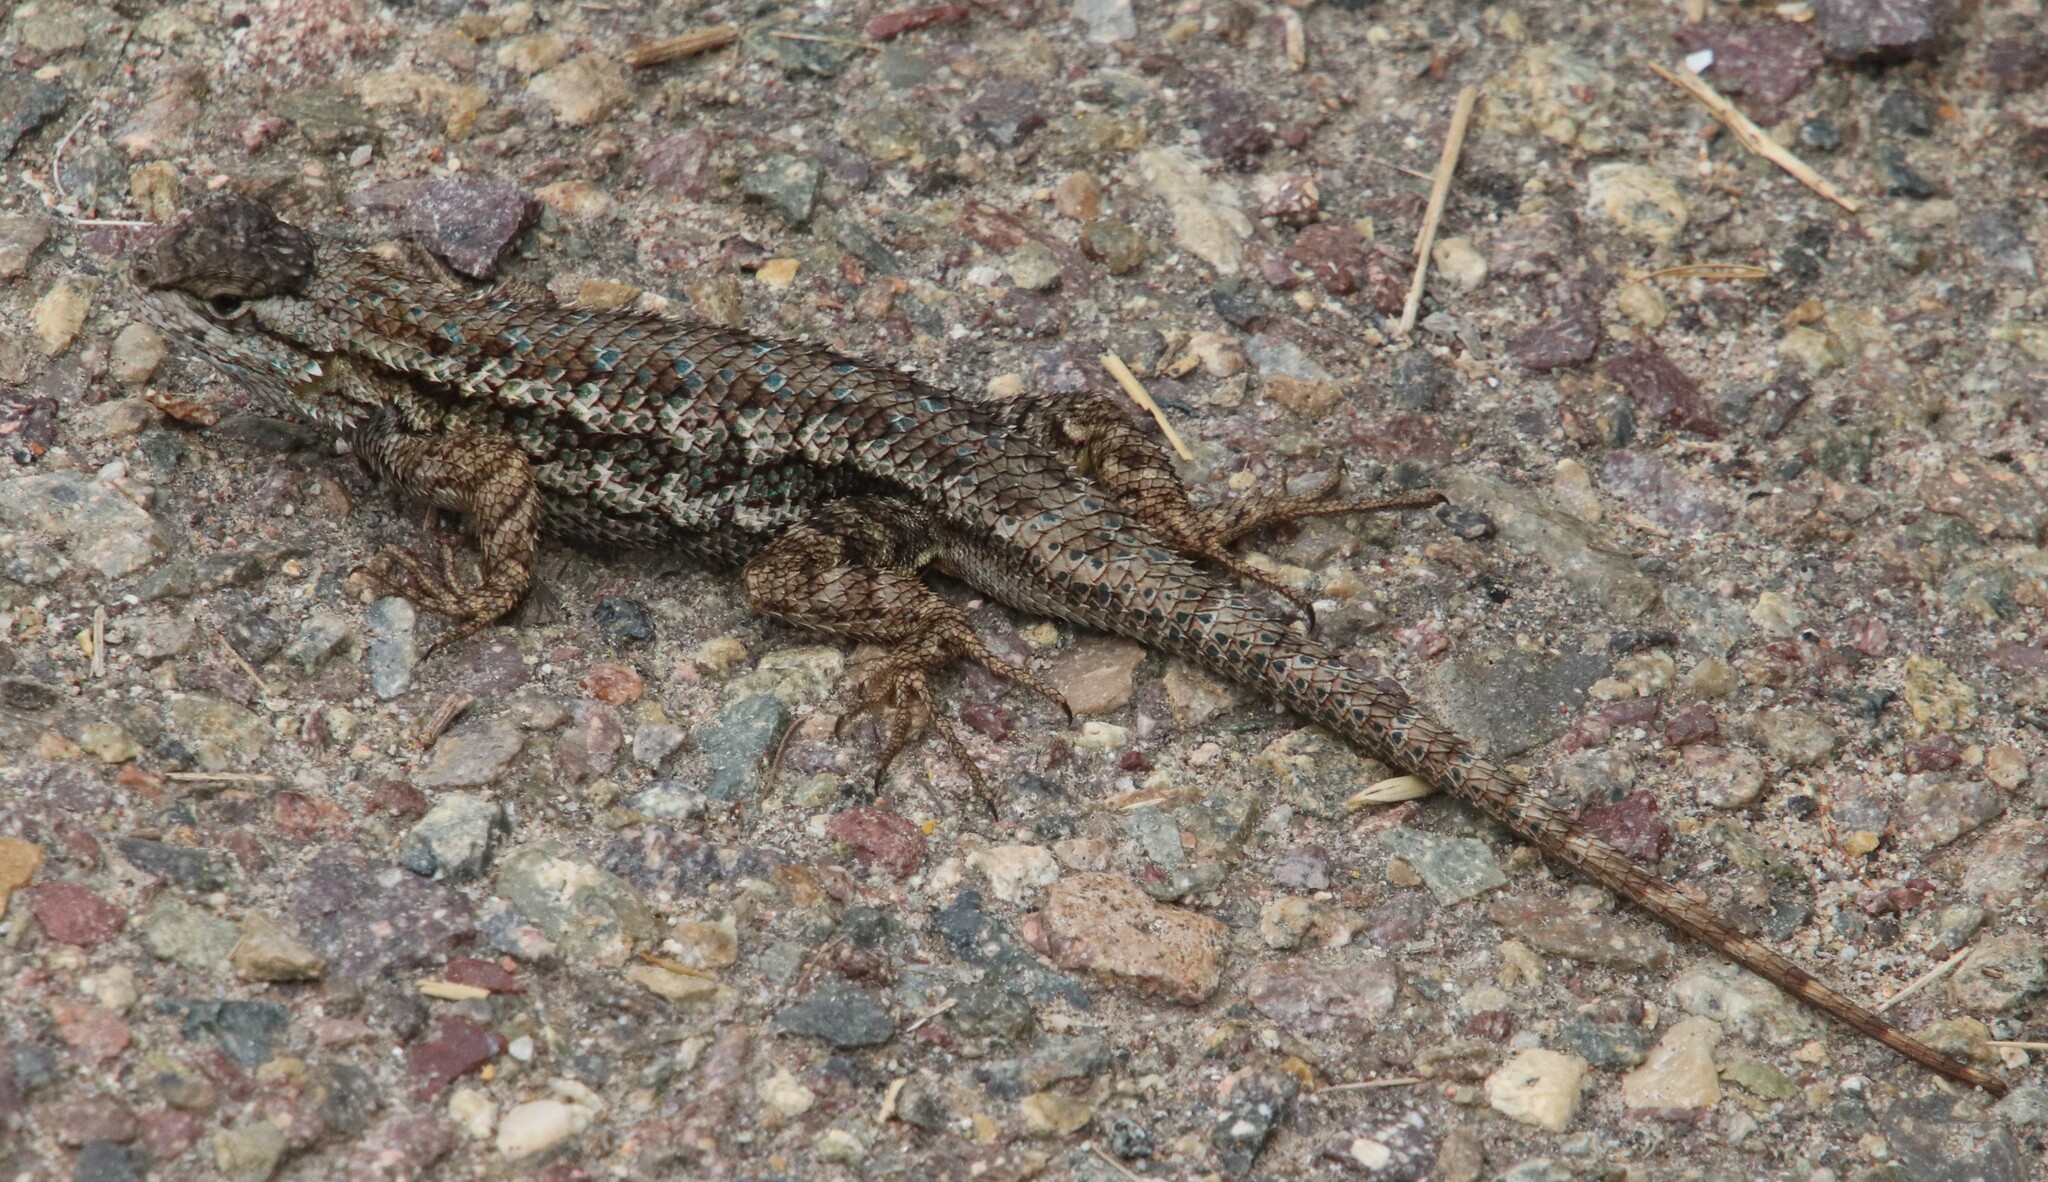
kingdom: Animalia
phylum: Chordata
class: Squamata
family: Phrynosomatidae
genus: Sceloporus
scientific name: Sceloporus occidentalis
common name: Western fence lizard
